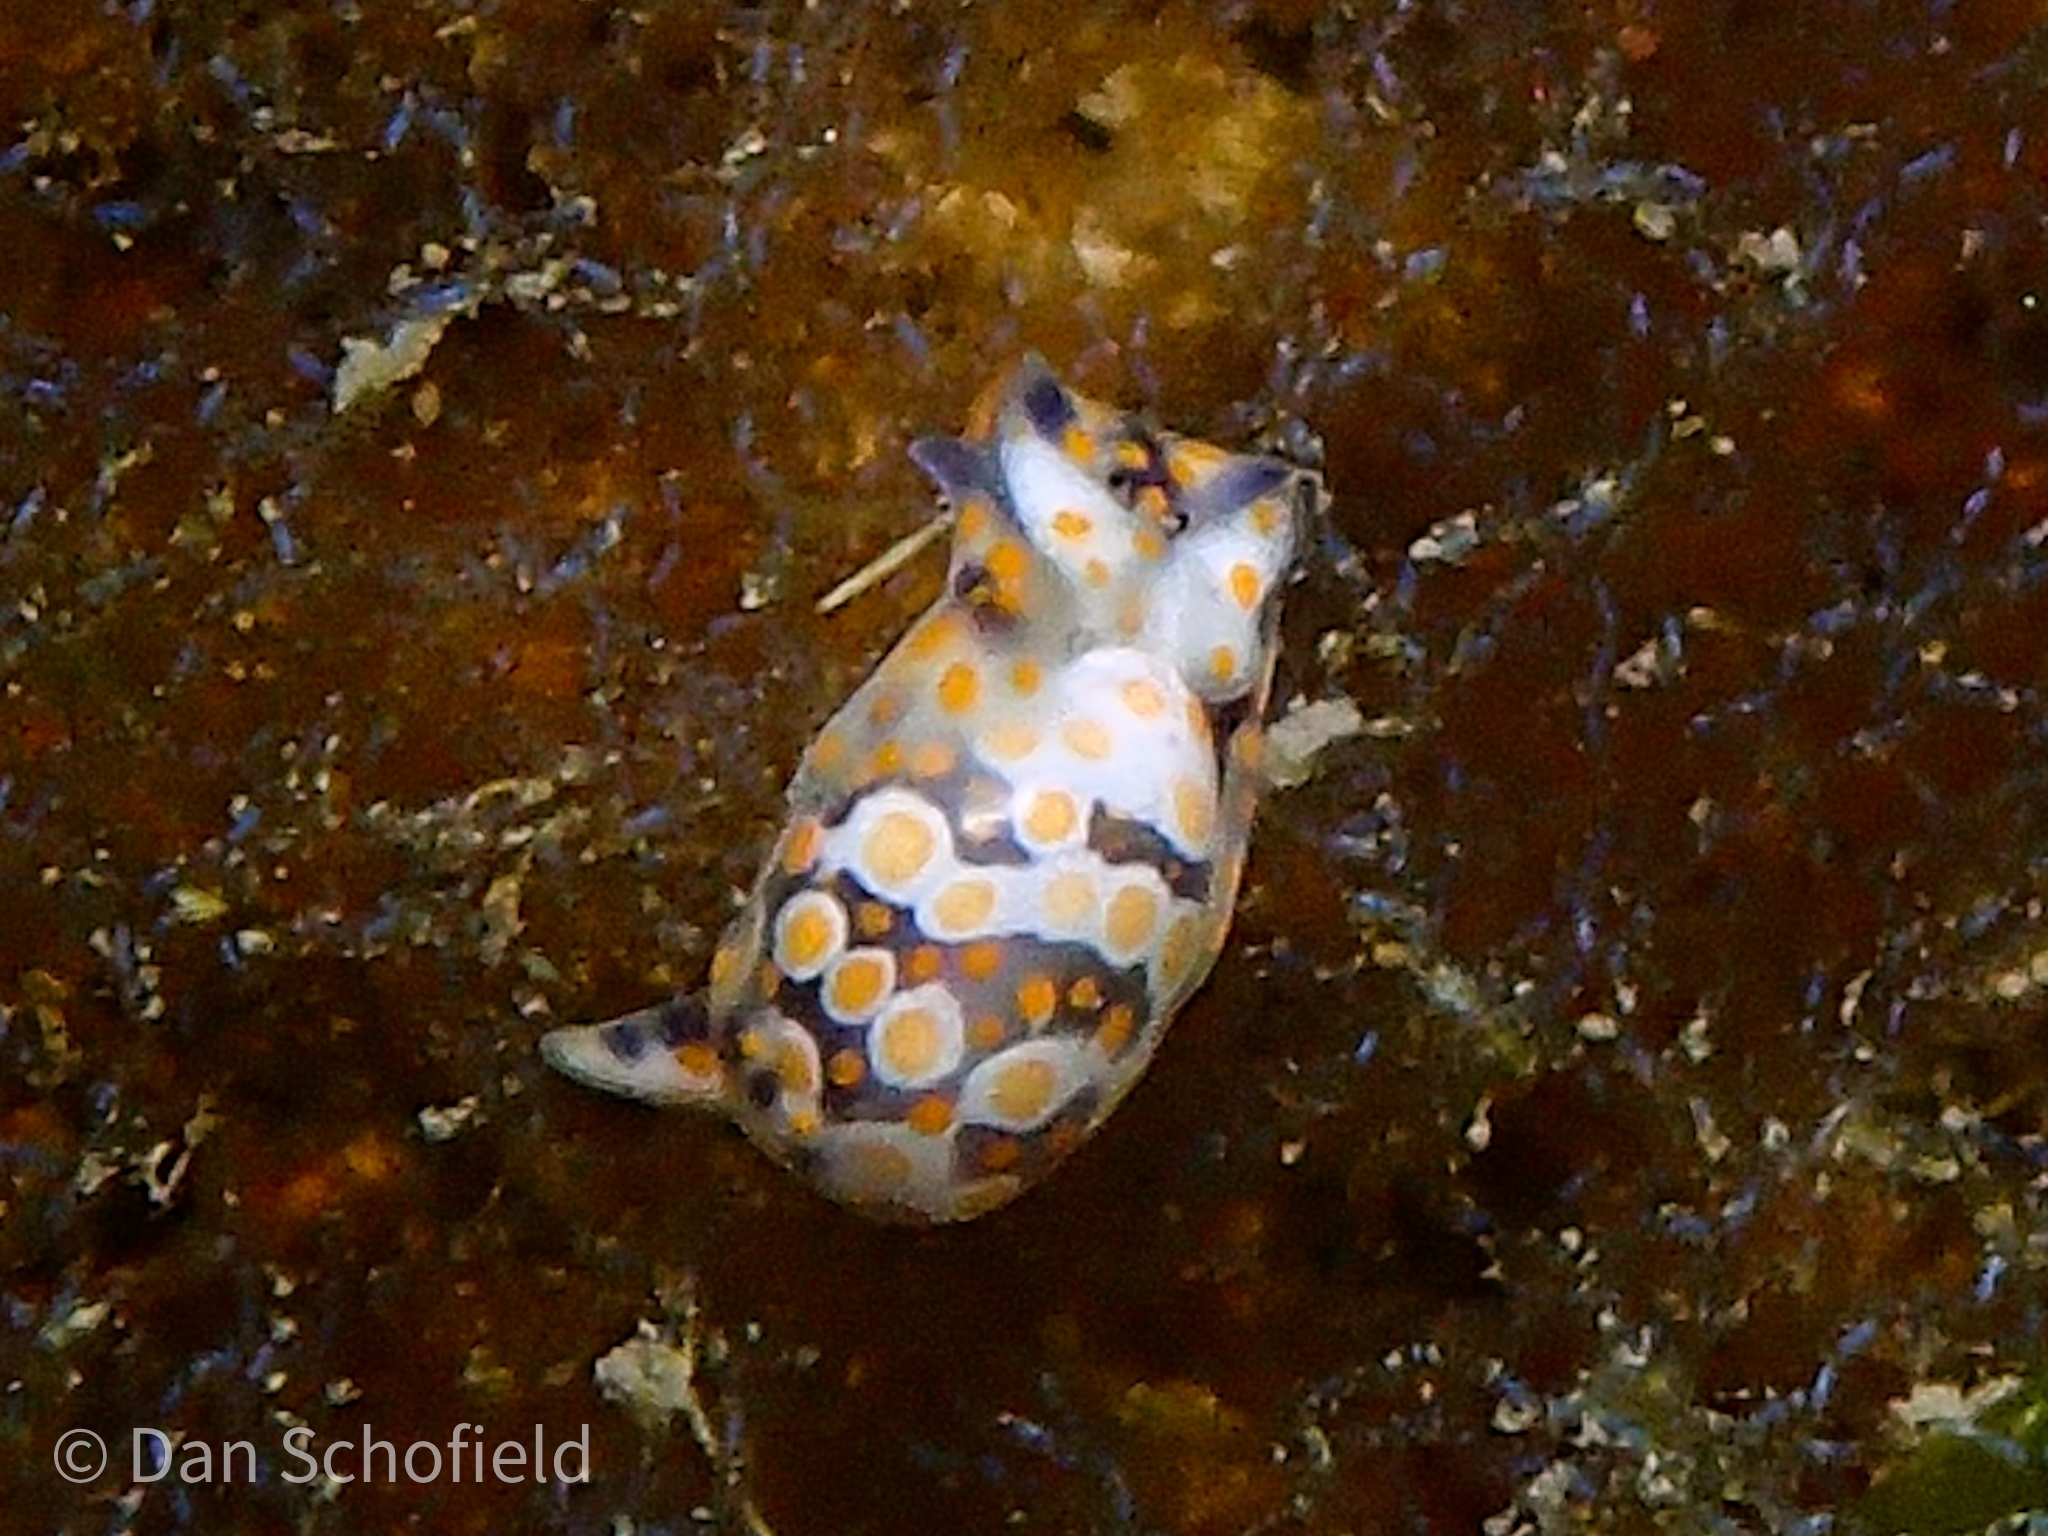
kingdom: Animalia
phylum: Mollusca
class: Gastropoda
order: Cephalaspidea
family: Haminoeidae
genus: Lamprohaminoea
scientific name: Lamprohaminoea ovalis
